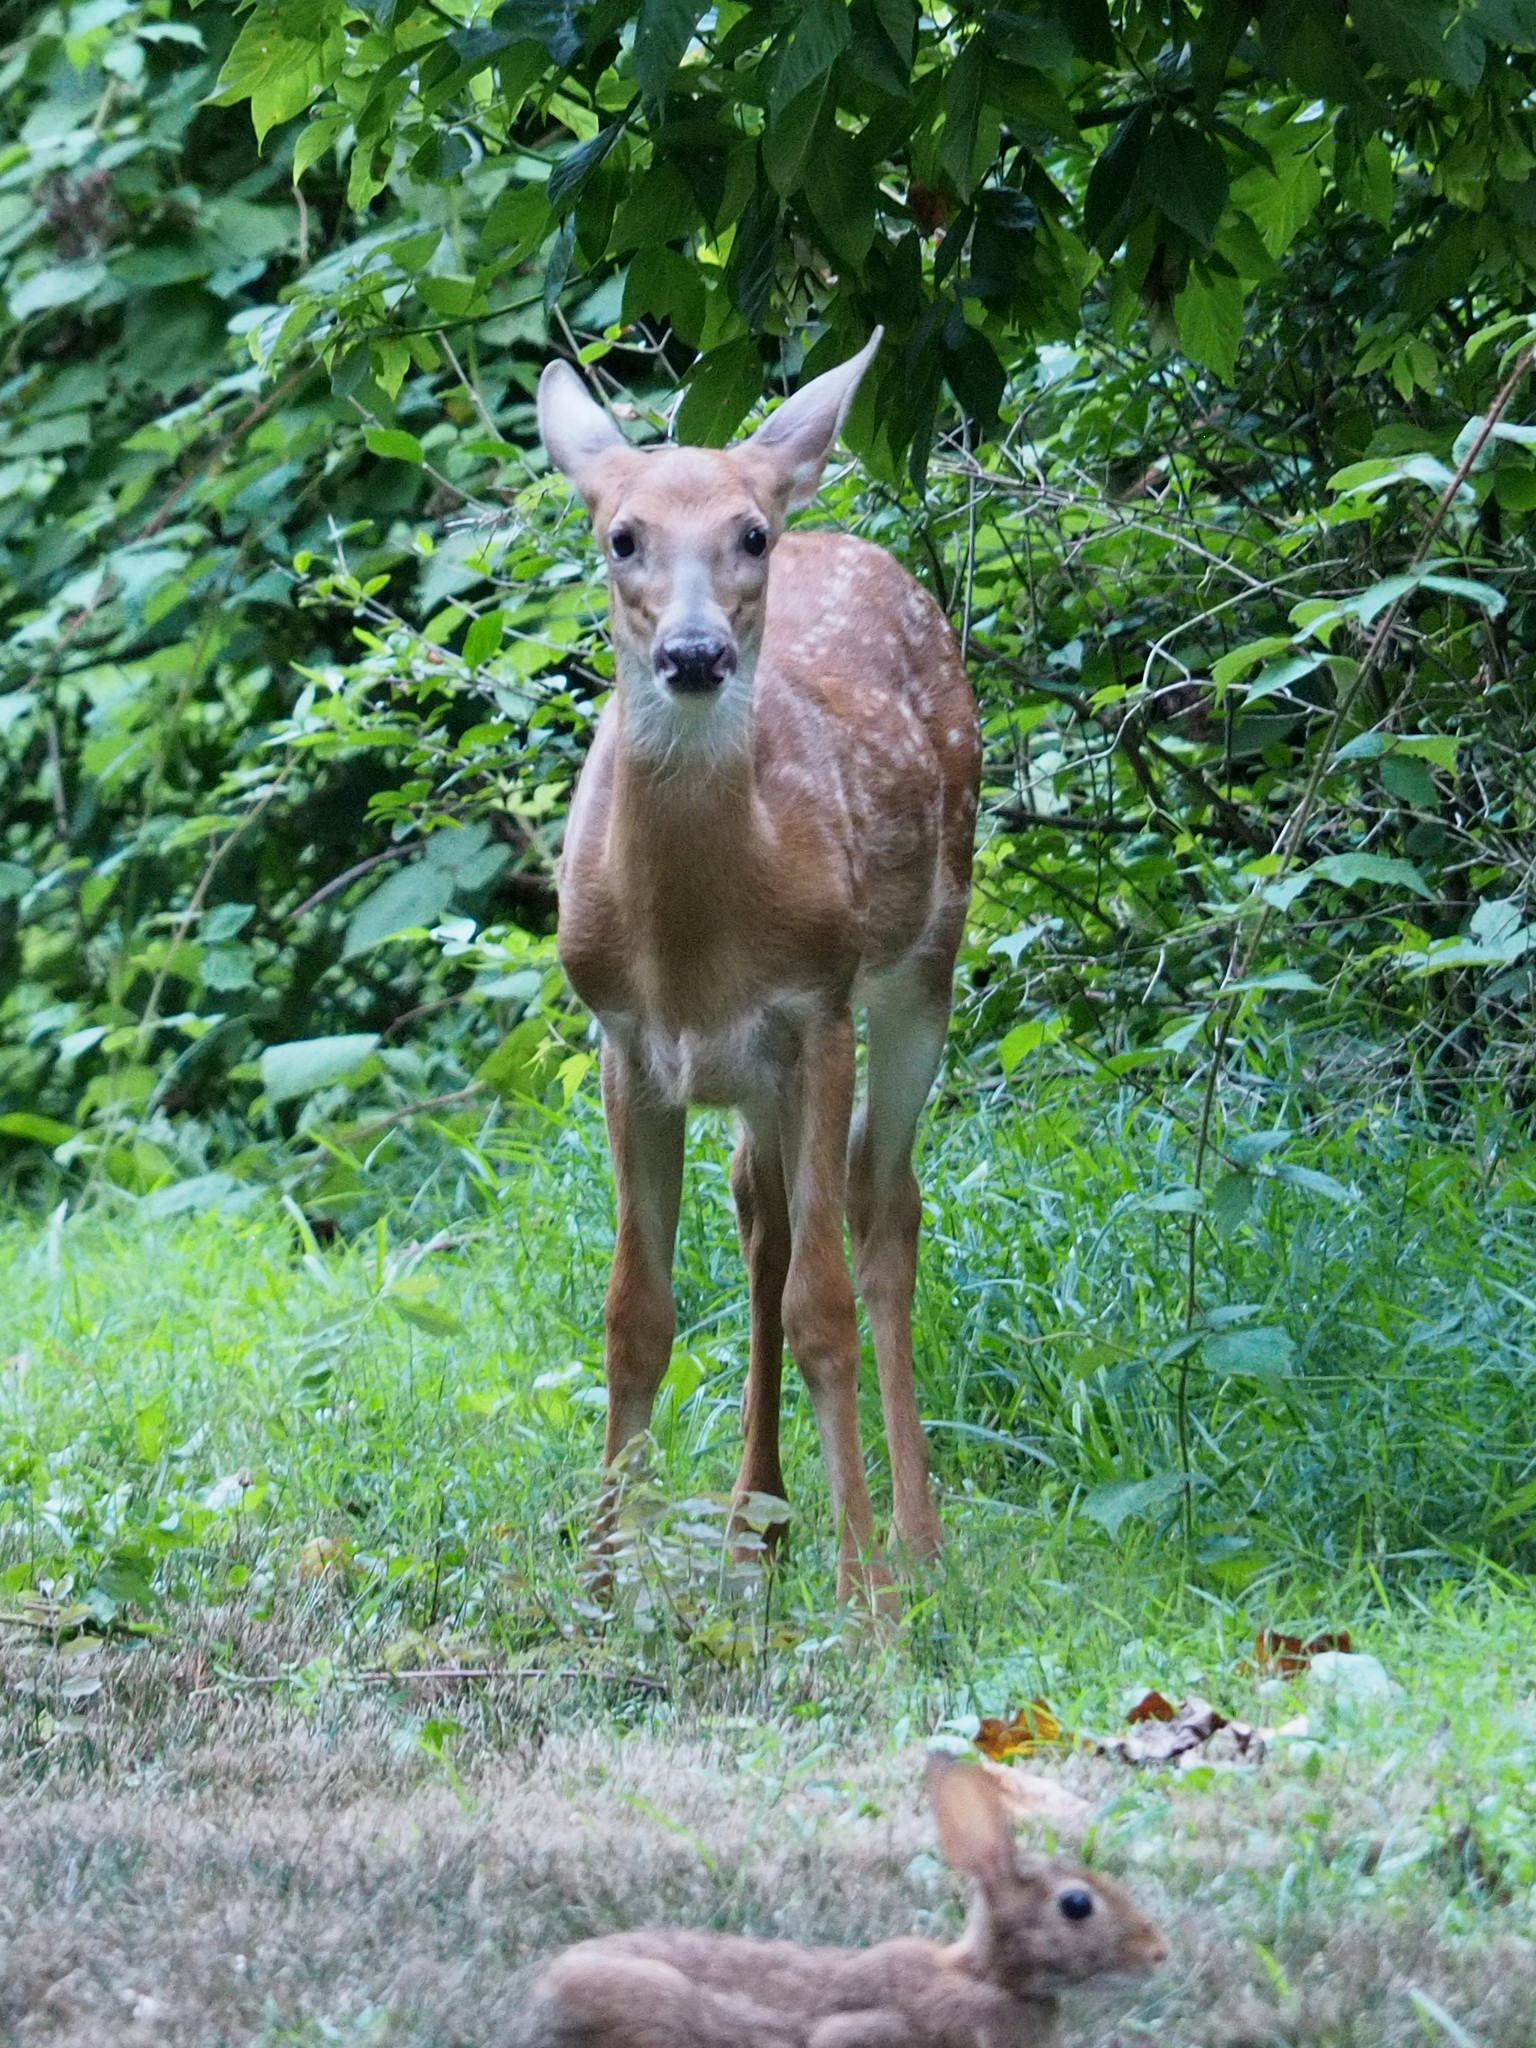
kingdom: Animalia
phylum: Chordata
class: Mammalia
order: Artiodactyla
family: Cervidae
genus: Odocoileus
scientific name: Odocoileus virginianus
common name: White-tailed deer
